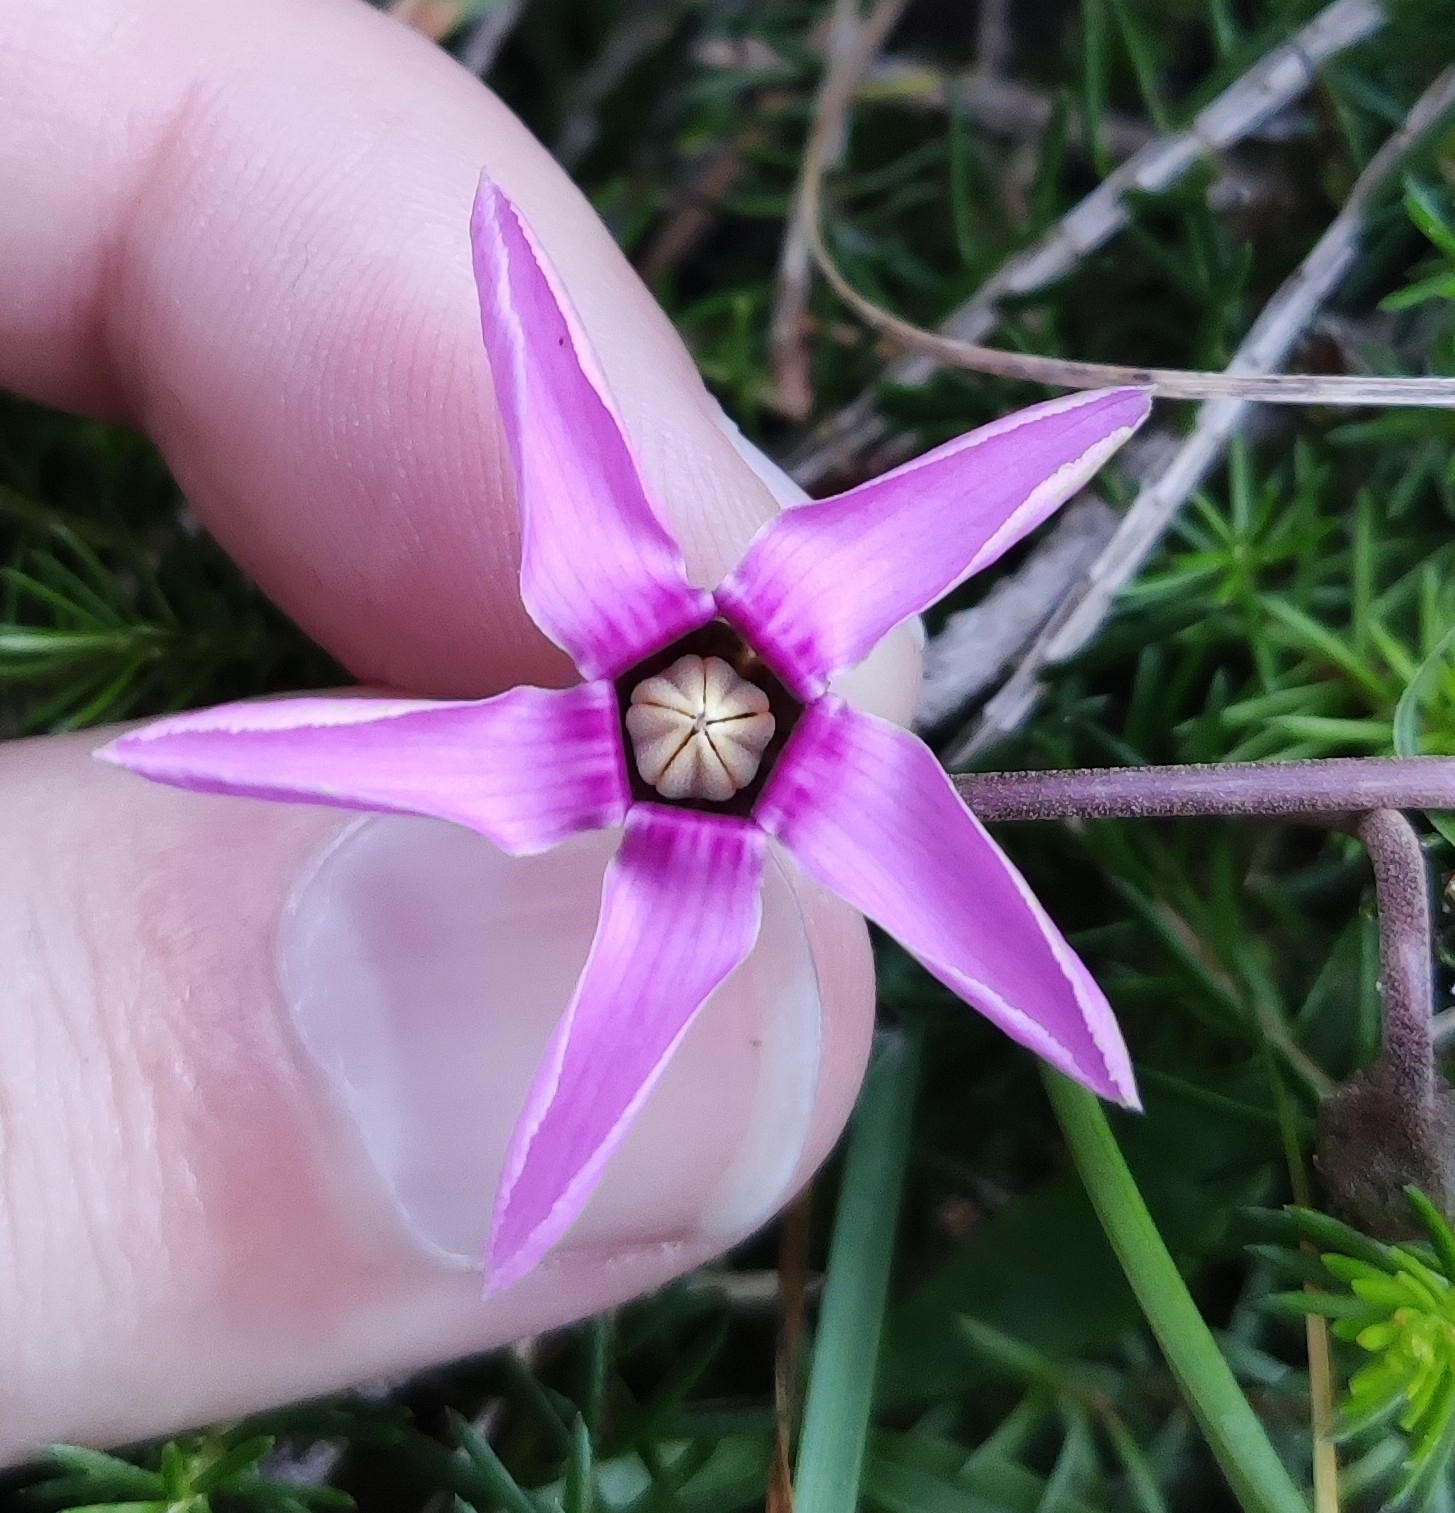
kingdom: Plantae
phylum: Tracheophyta
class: Magnoliopsida
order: Ericales
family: Primulaceae
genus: Cyclamen
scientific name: Cyclamen purpurascens
